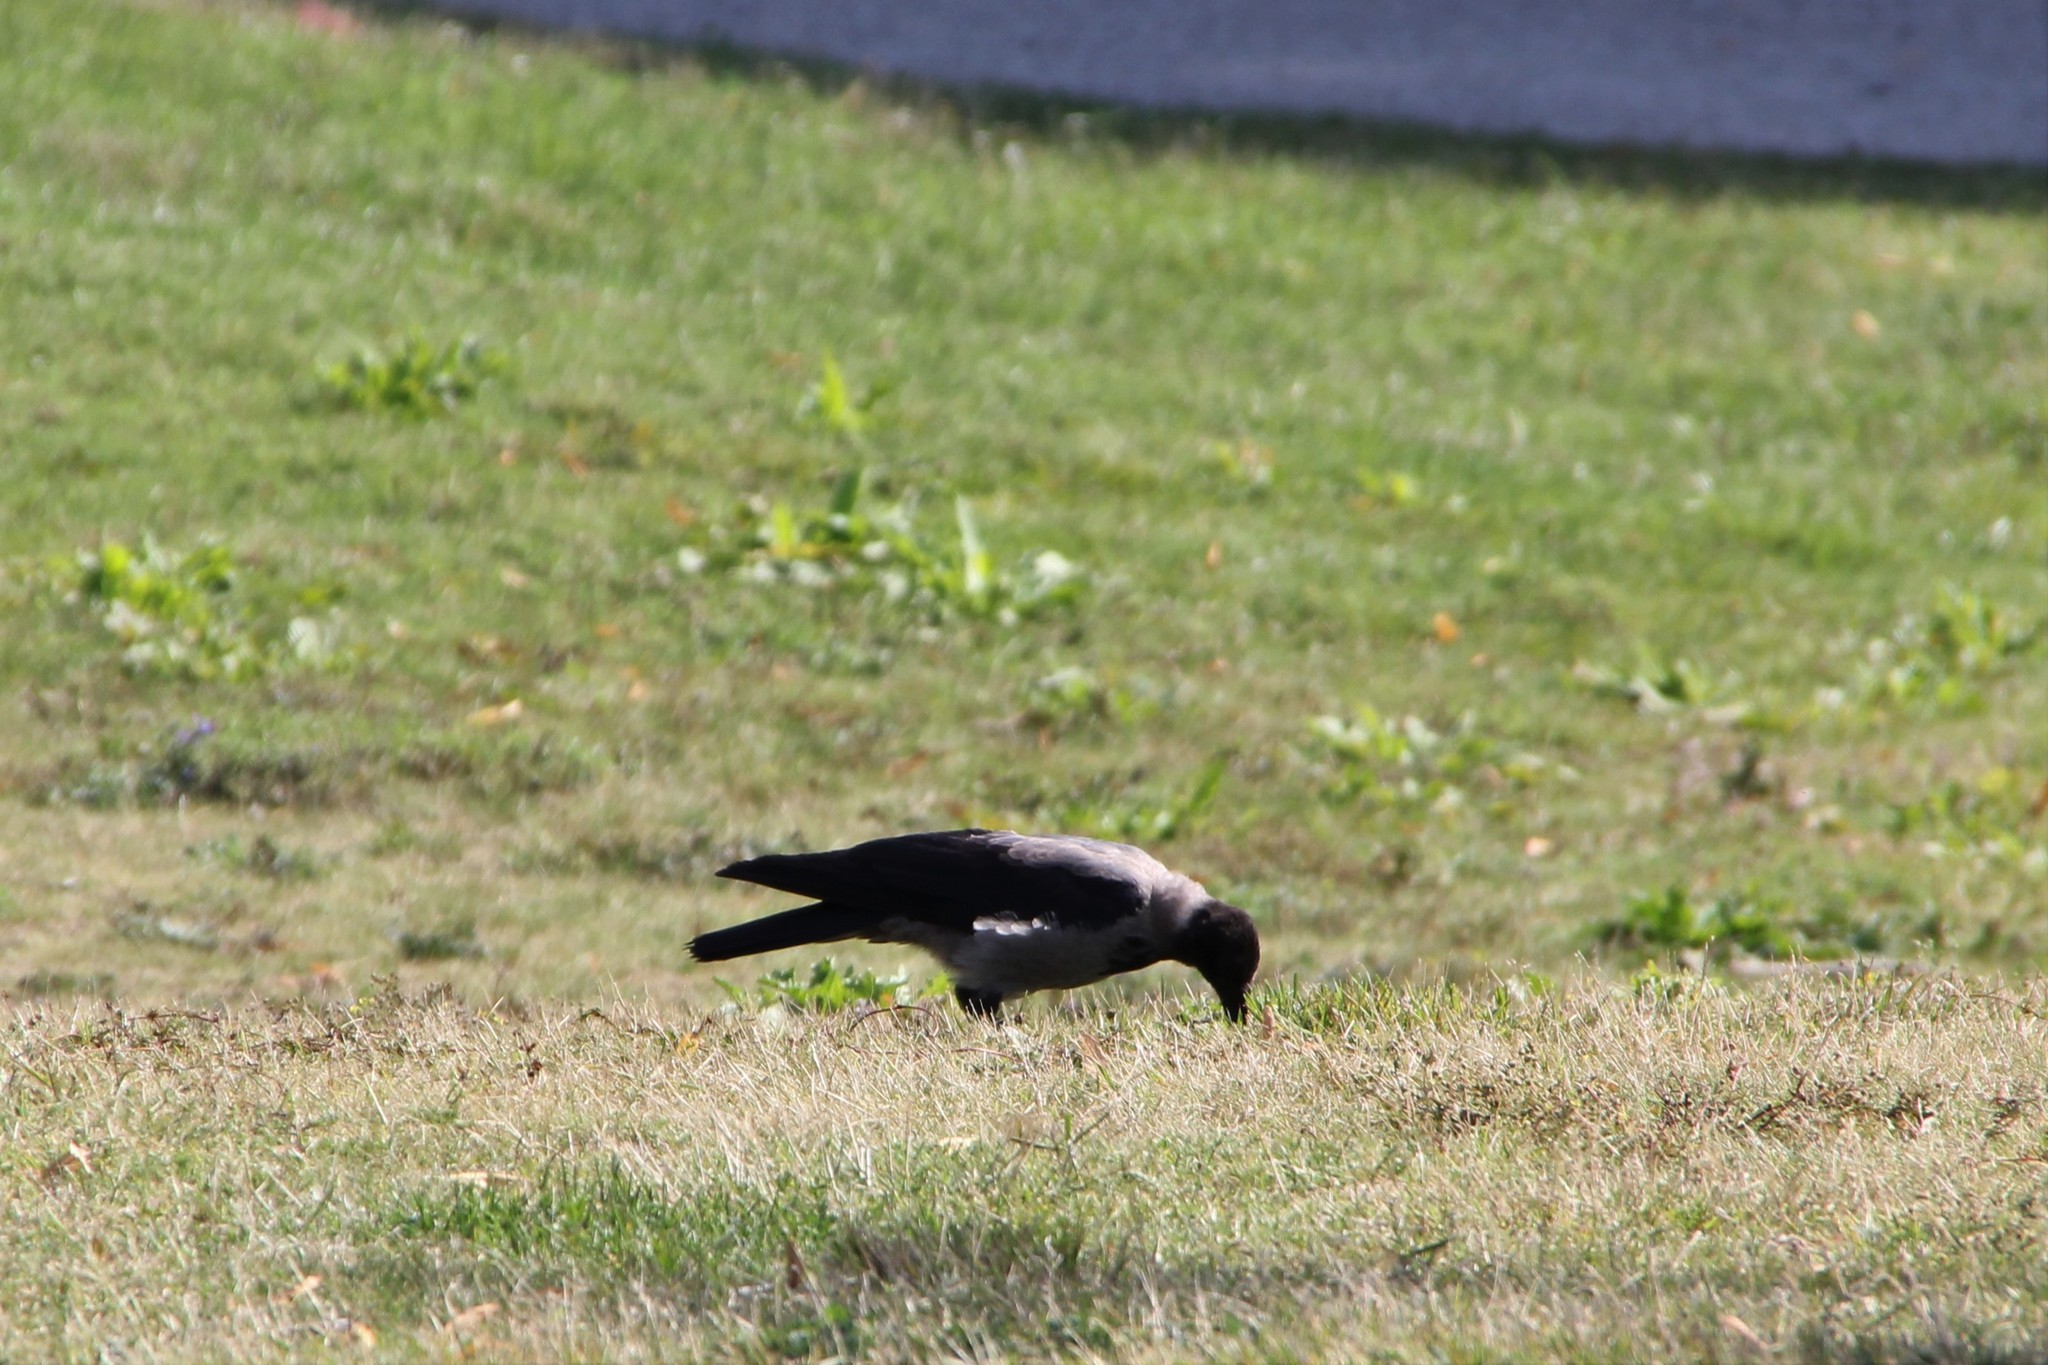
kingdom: Animalia
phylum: Chordata
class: Aves
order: Passeriformes
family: Corvidae
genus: Corvus
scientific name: Corvus cornix
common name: Hooded crow
